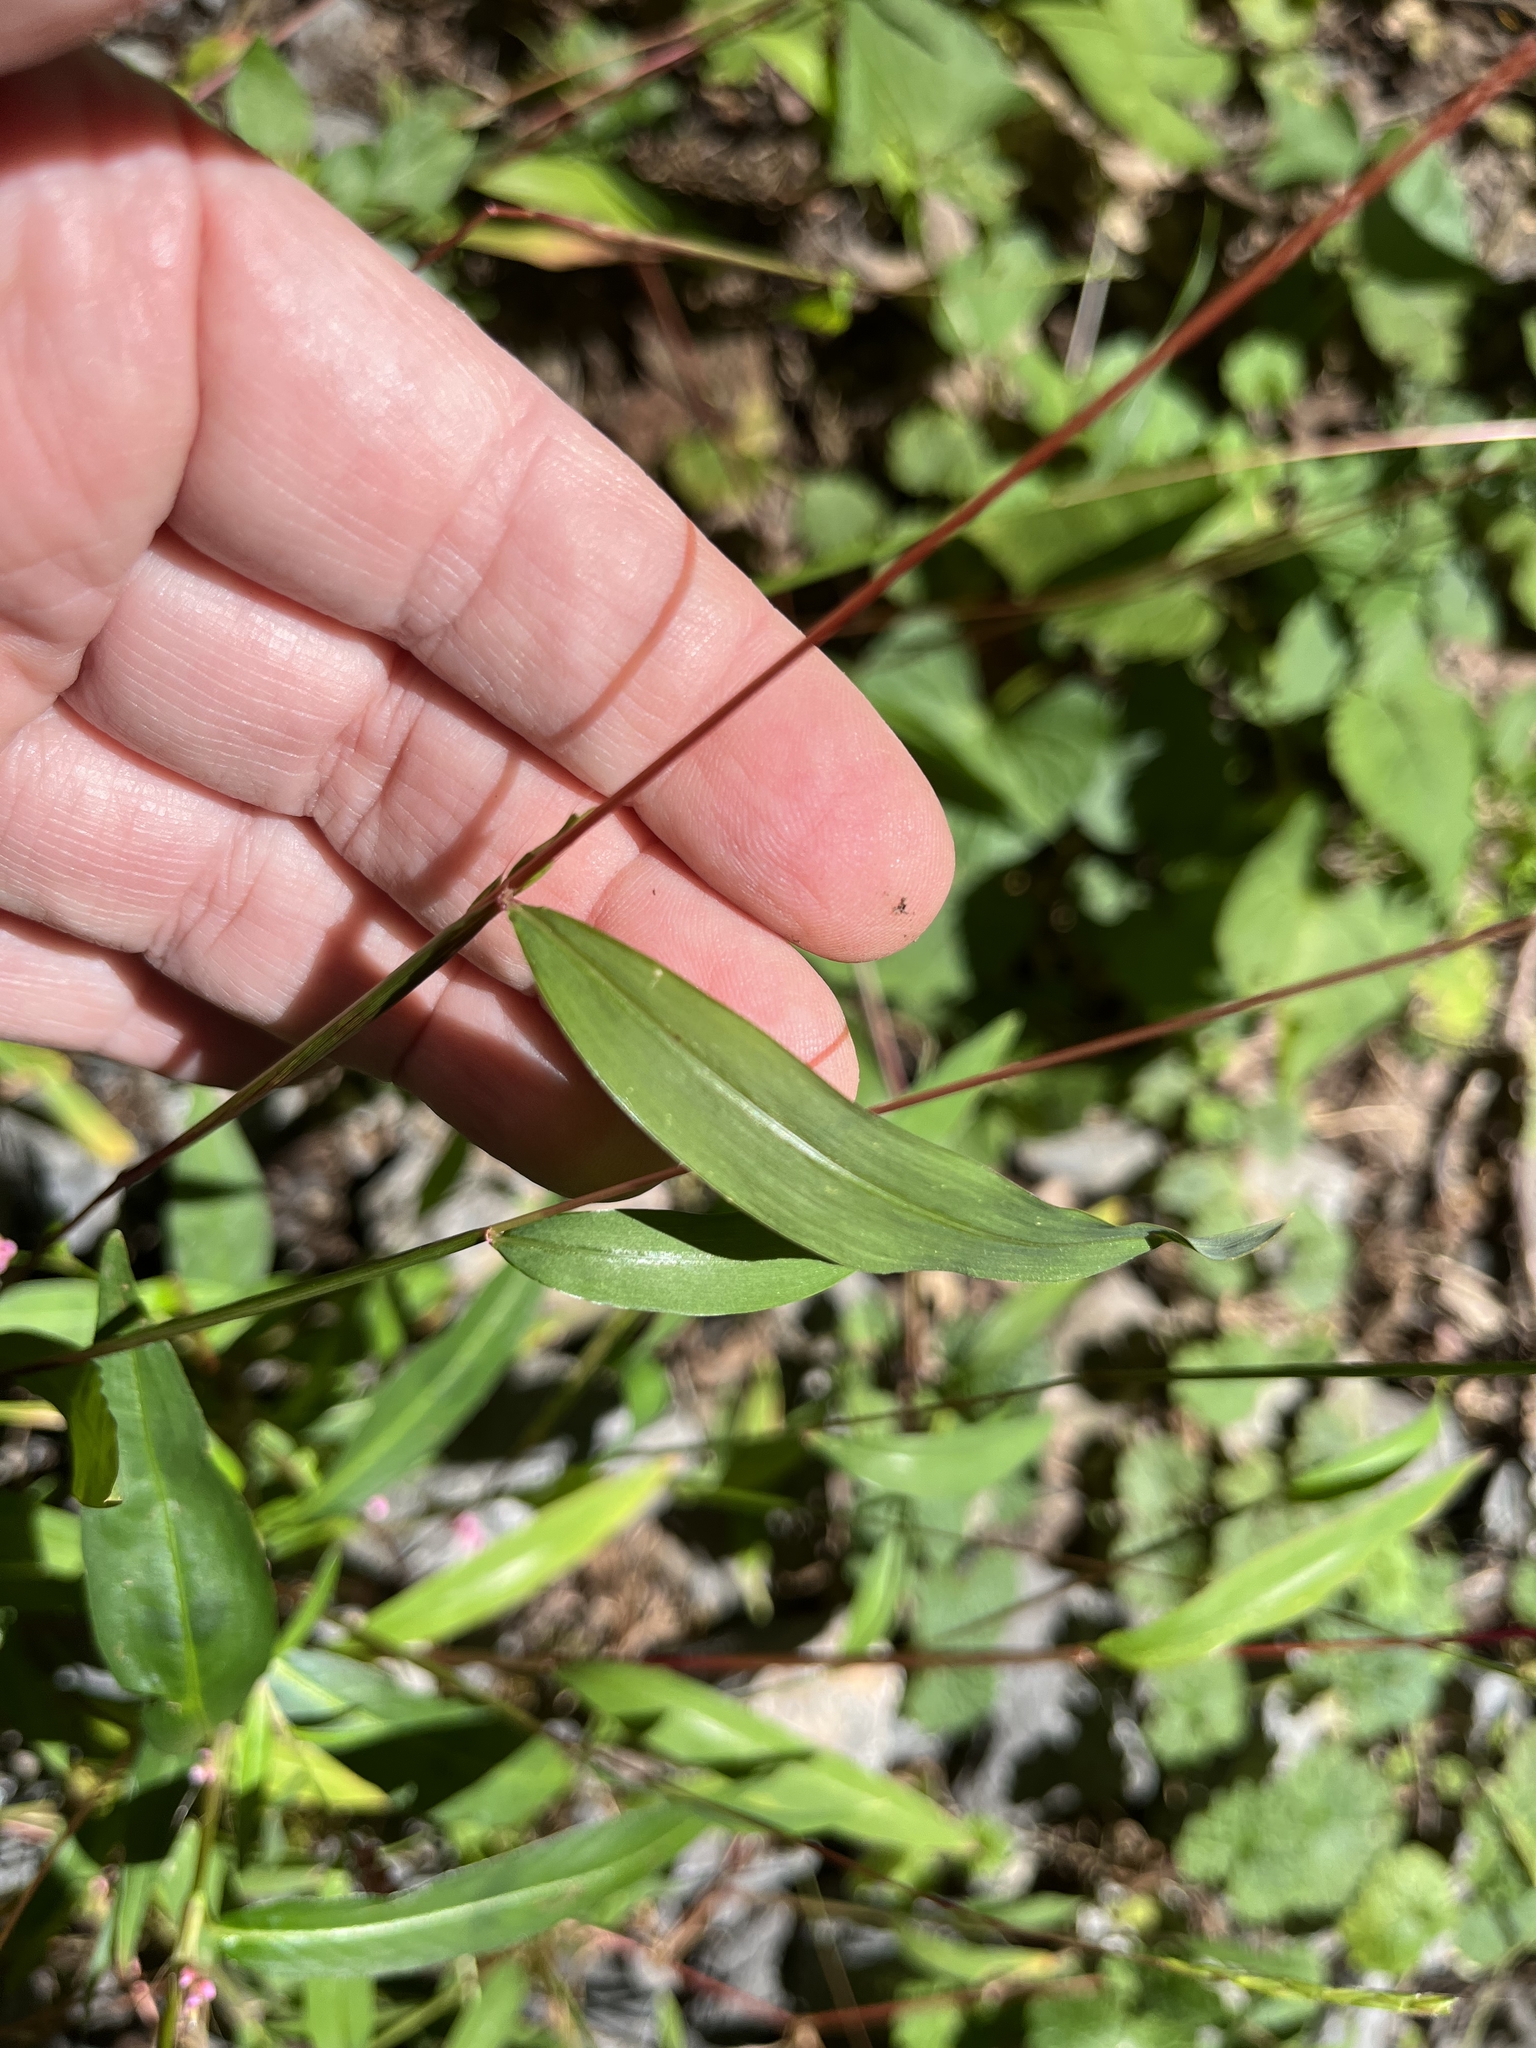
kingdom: Plantae
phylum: Tracheophyta
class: Liliopsida
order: Poales
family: Poaceae
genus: Microstegium
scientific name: Microstegium vimineum
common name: Japanese stiltgrass
